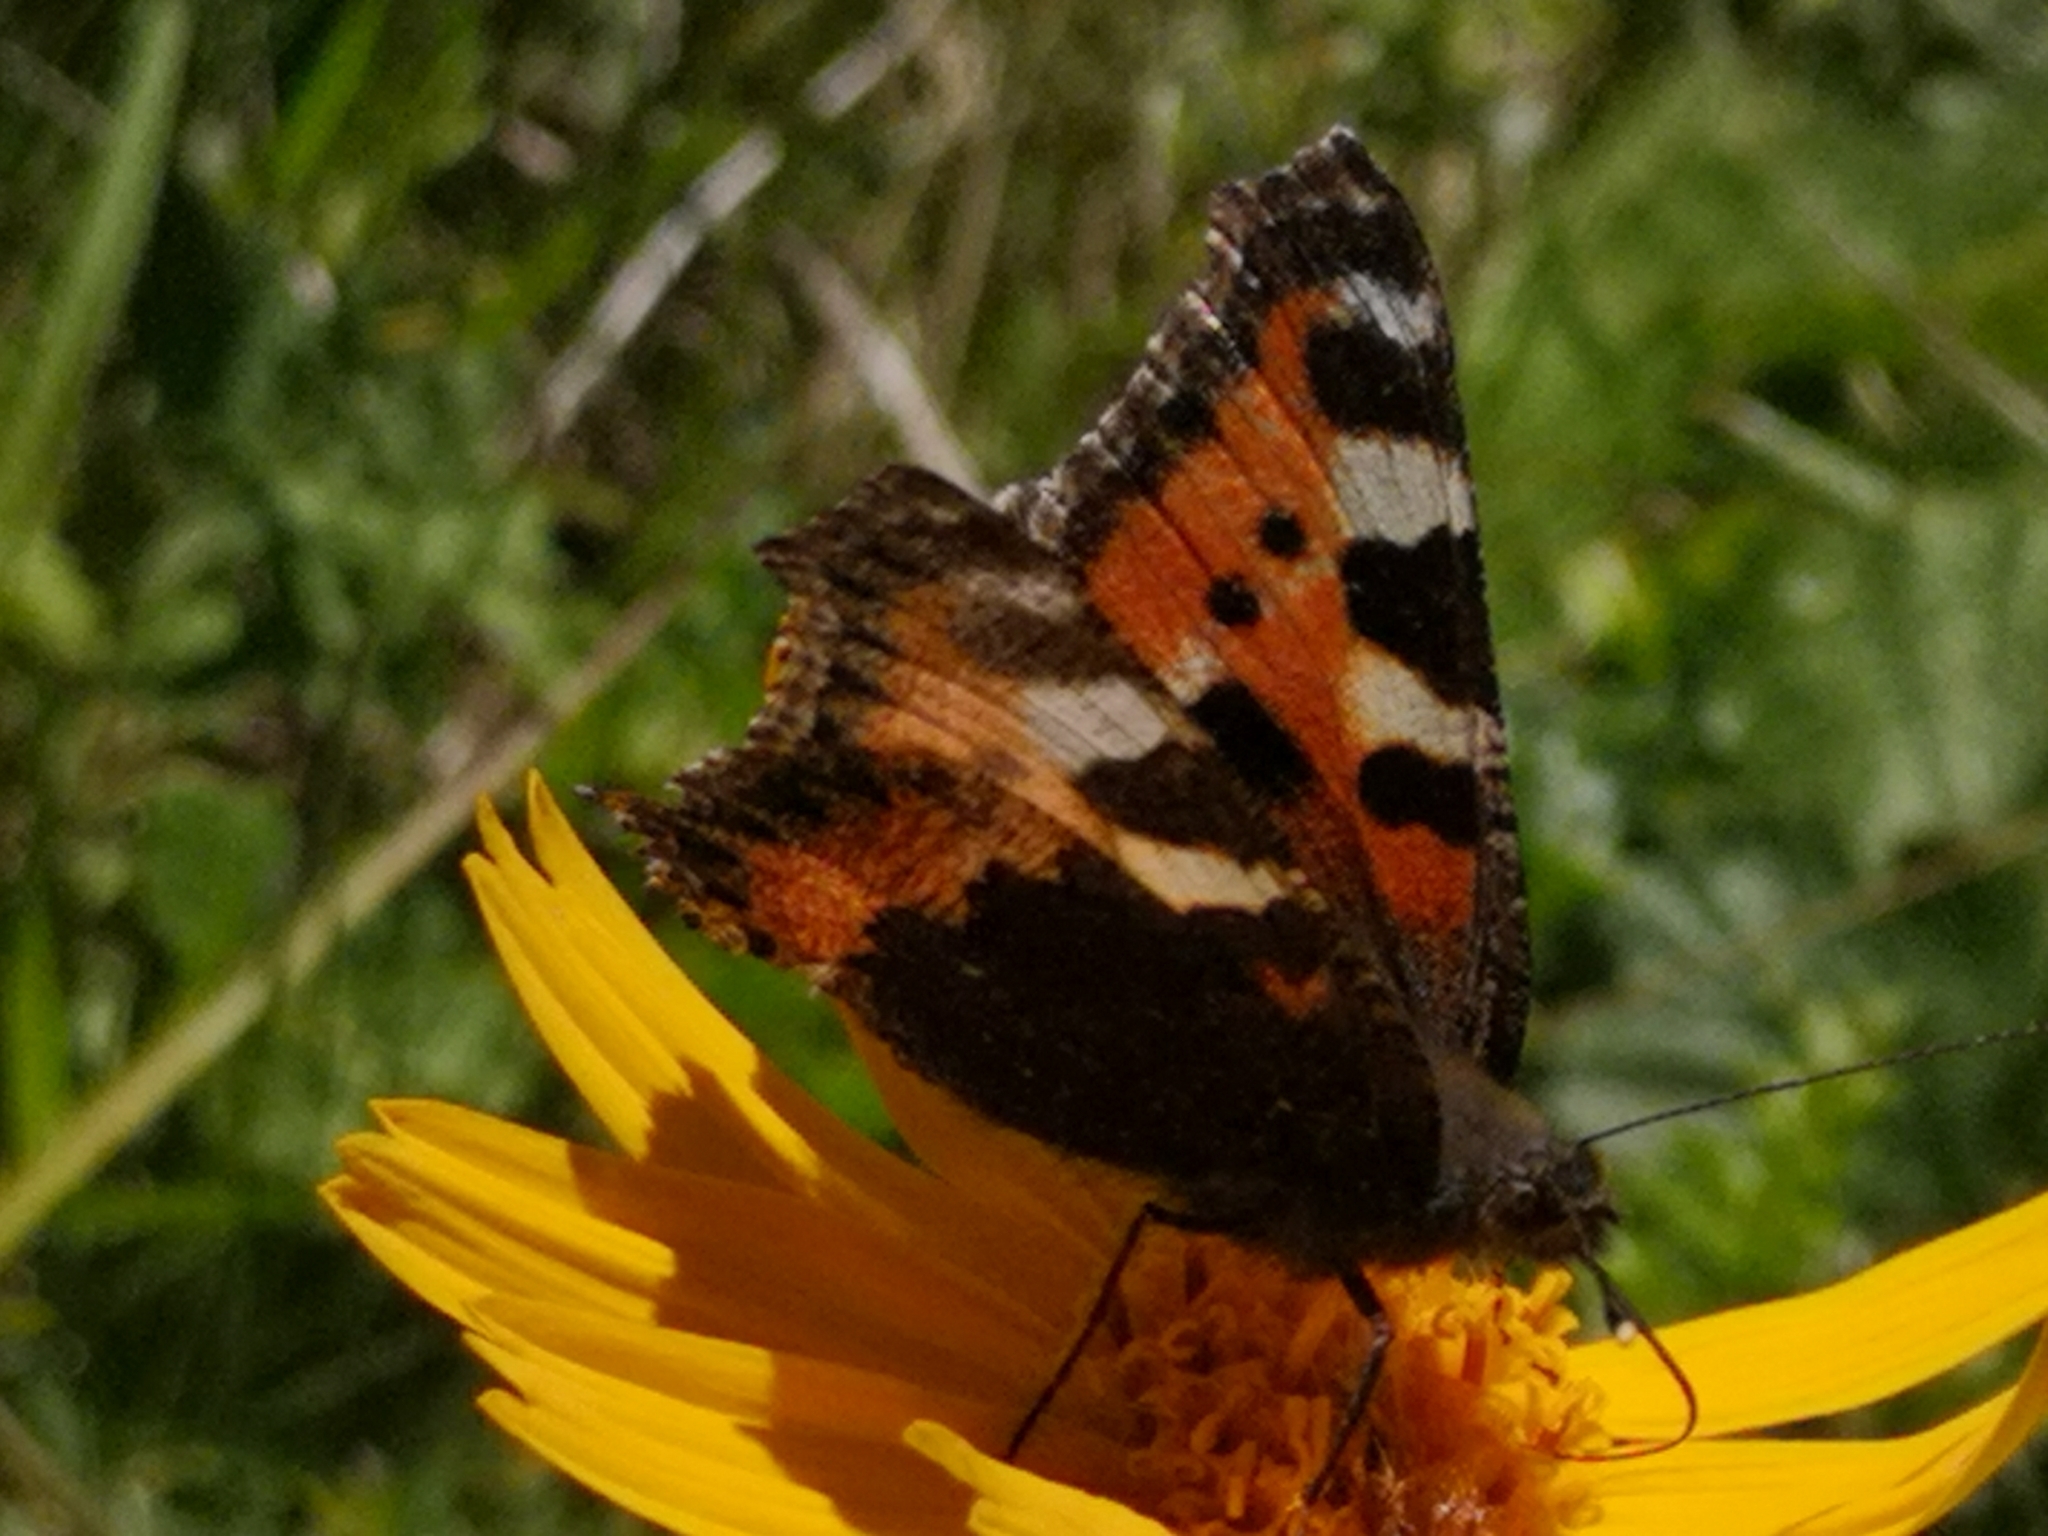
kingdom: Animalia
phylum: Arthropoda
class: Insecta
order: Lepidoptera
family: Nymphalidae
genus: Aglais
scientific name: Aglais urticae
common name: Small tortoiseshell
